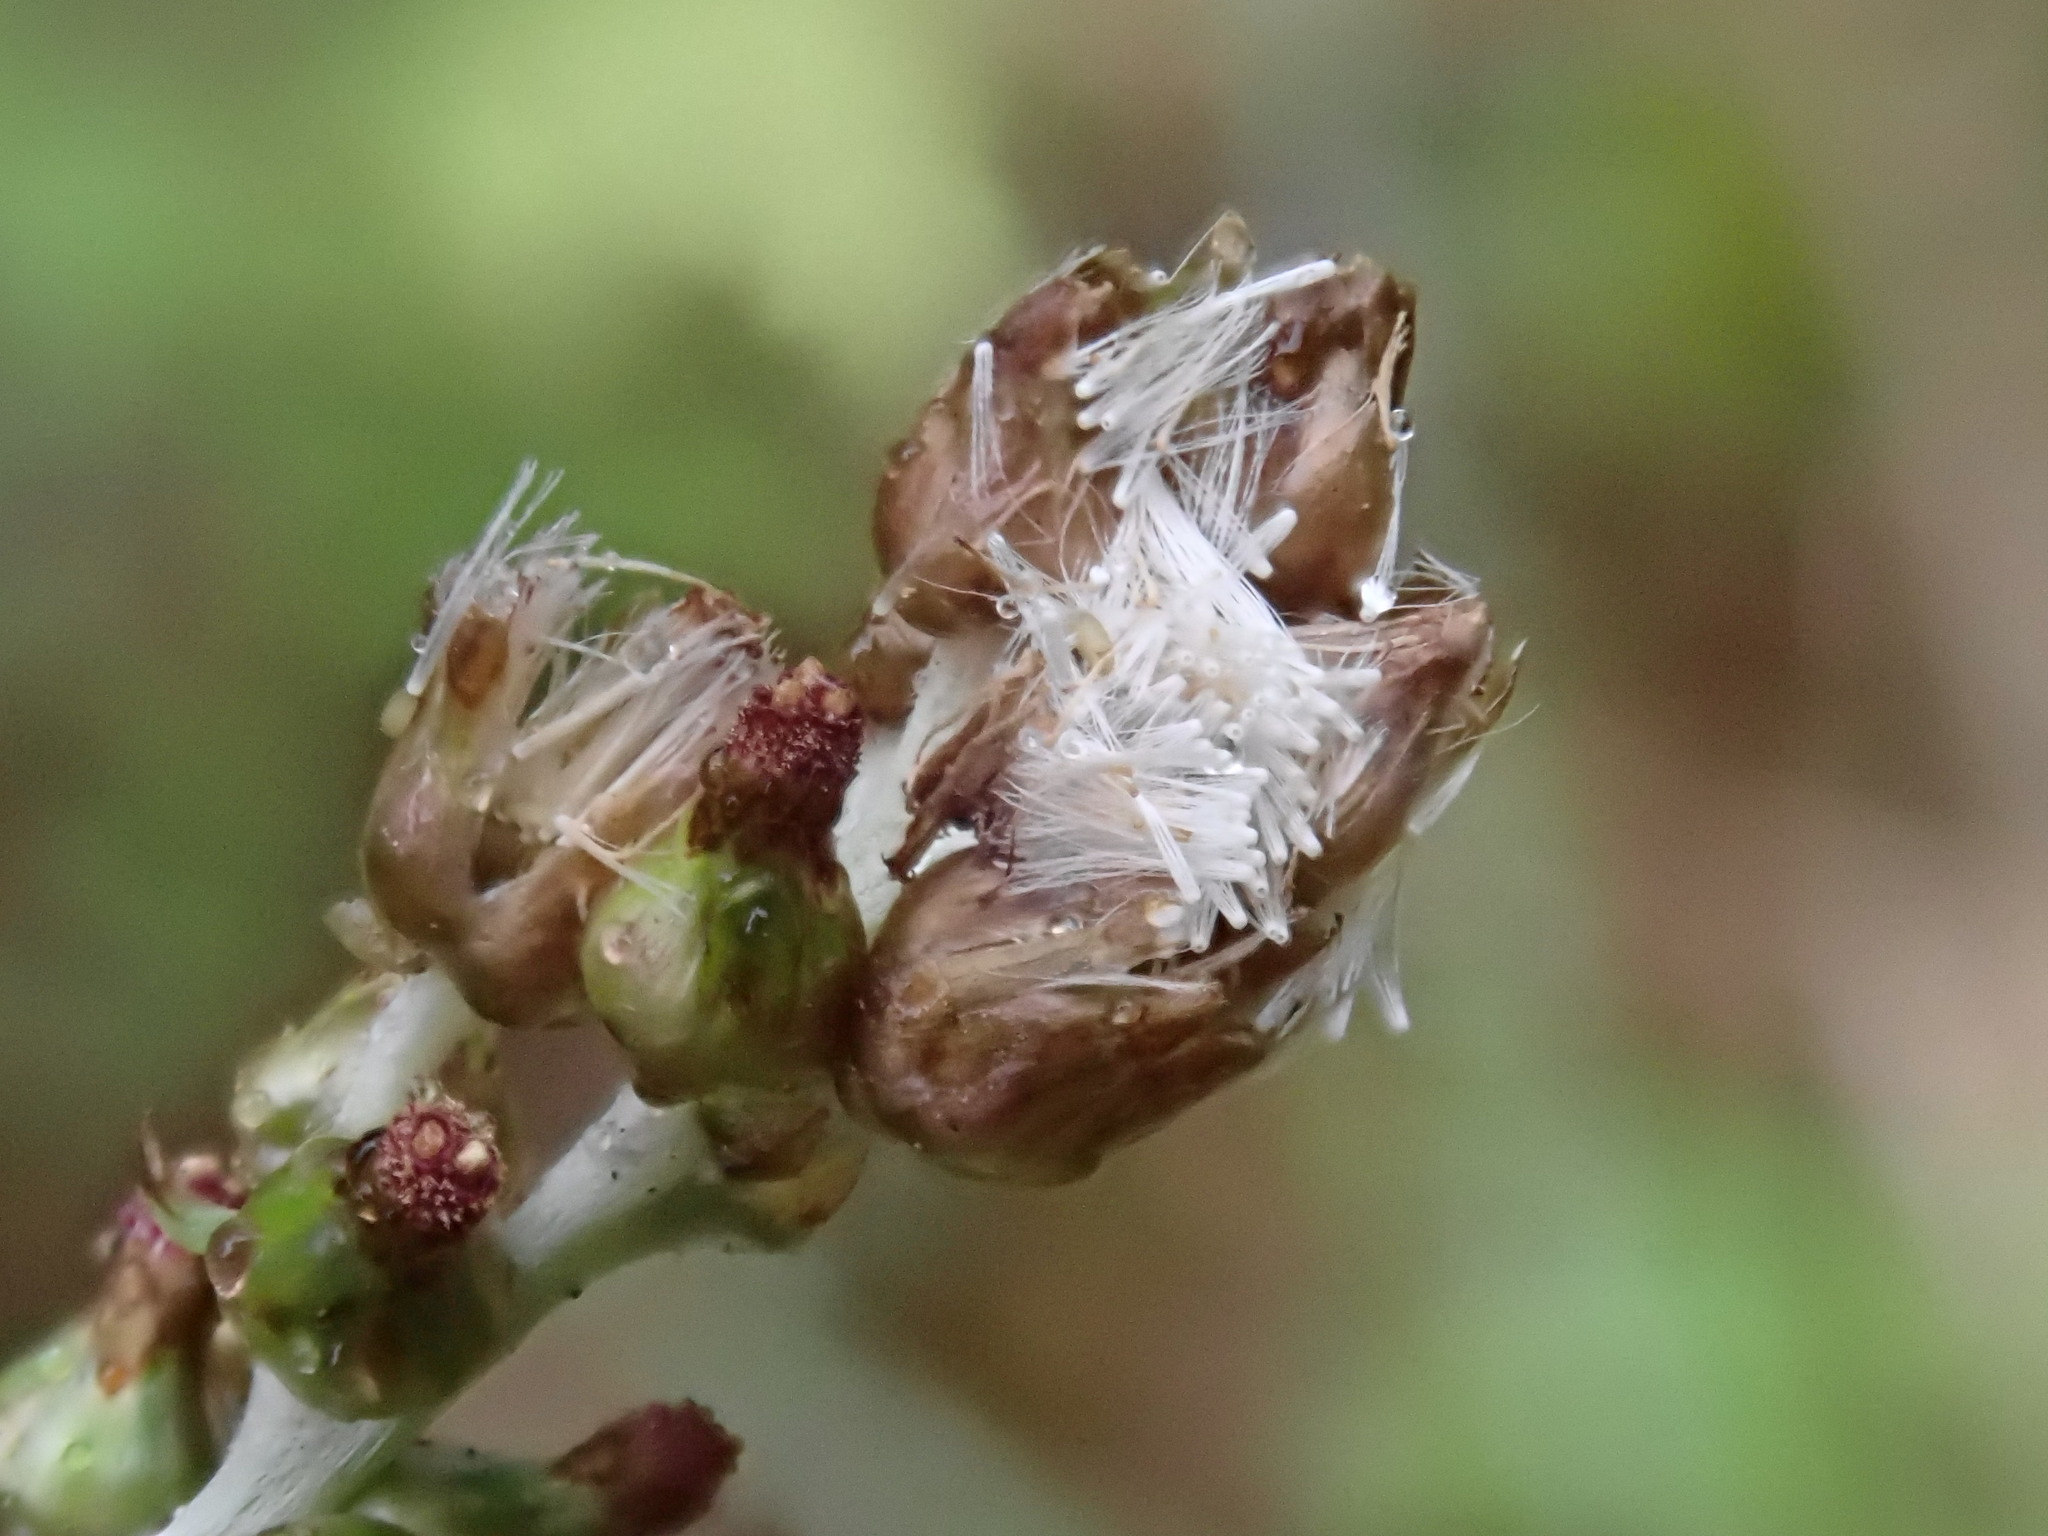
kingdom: Plantae
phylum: Tracheophyta
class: Magnoliopsida
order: Asterales
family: Asteraceae
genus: Gamochaeta
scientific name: Gamochaeta americana
